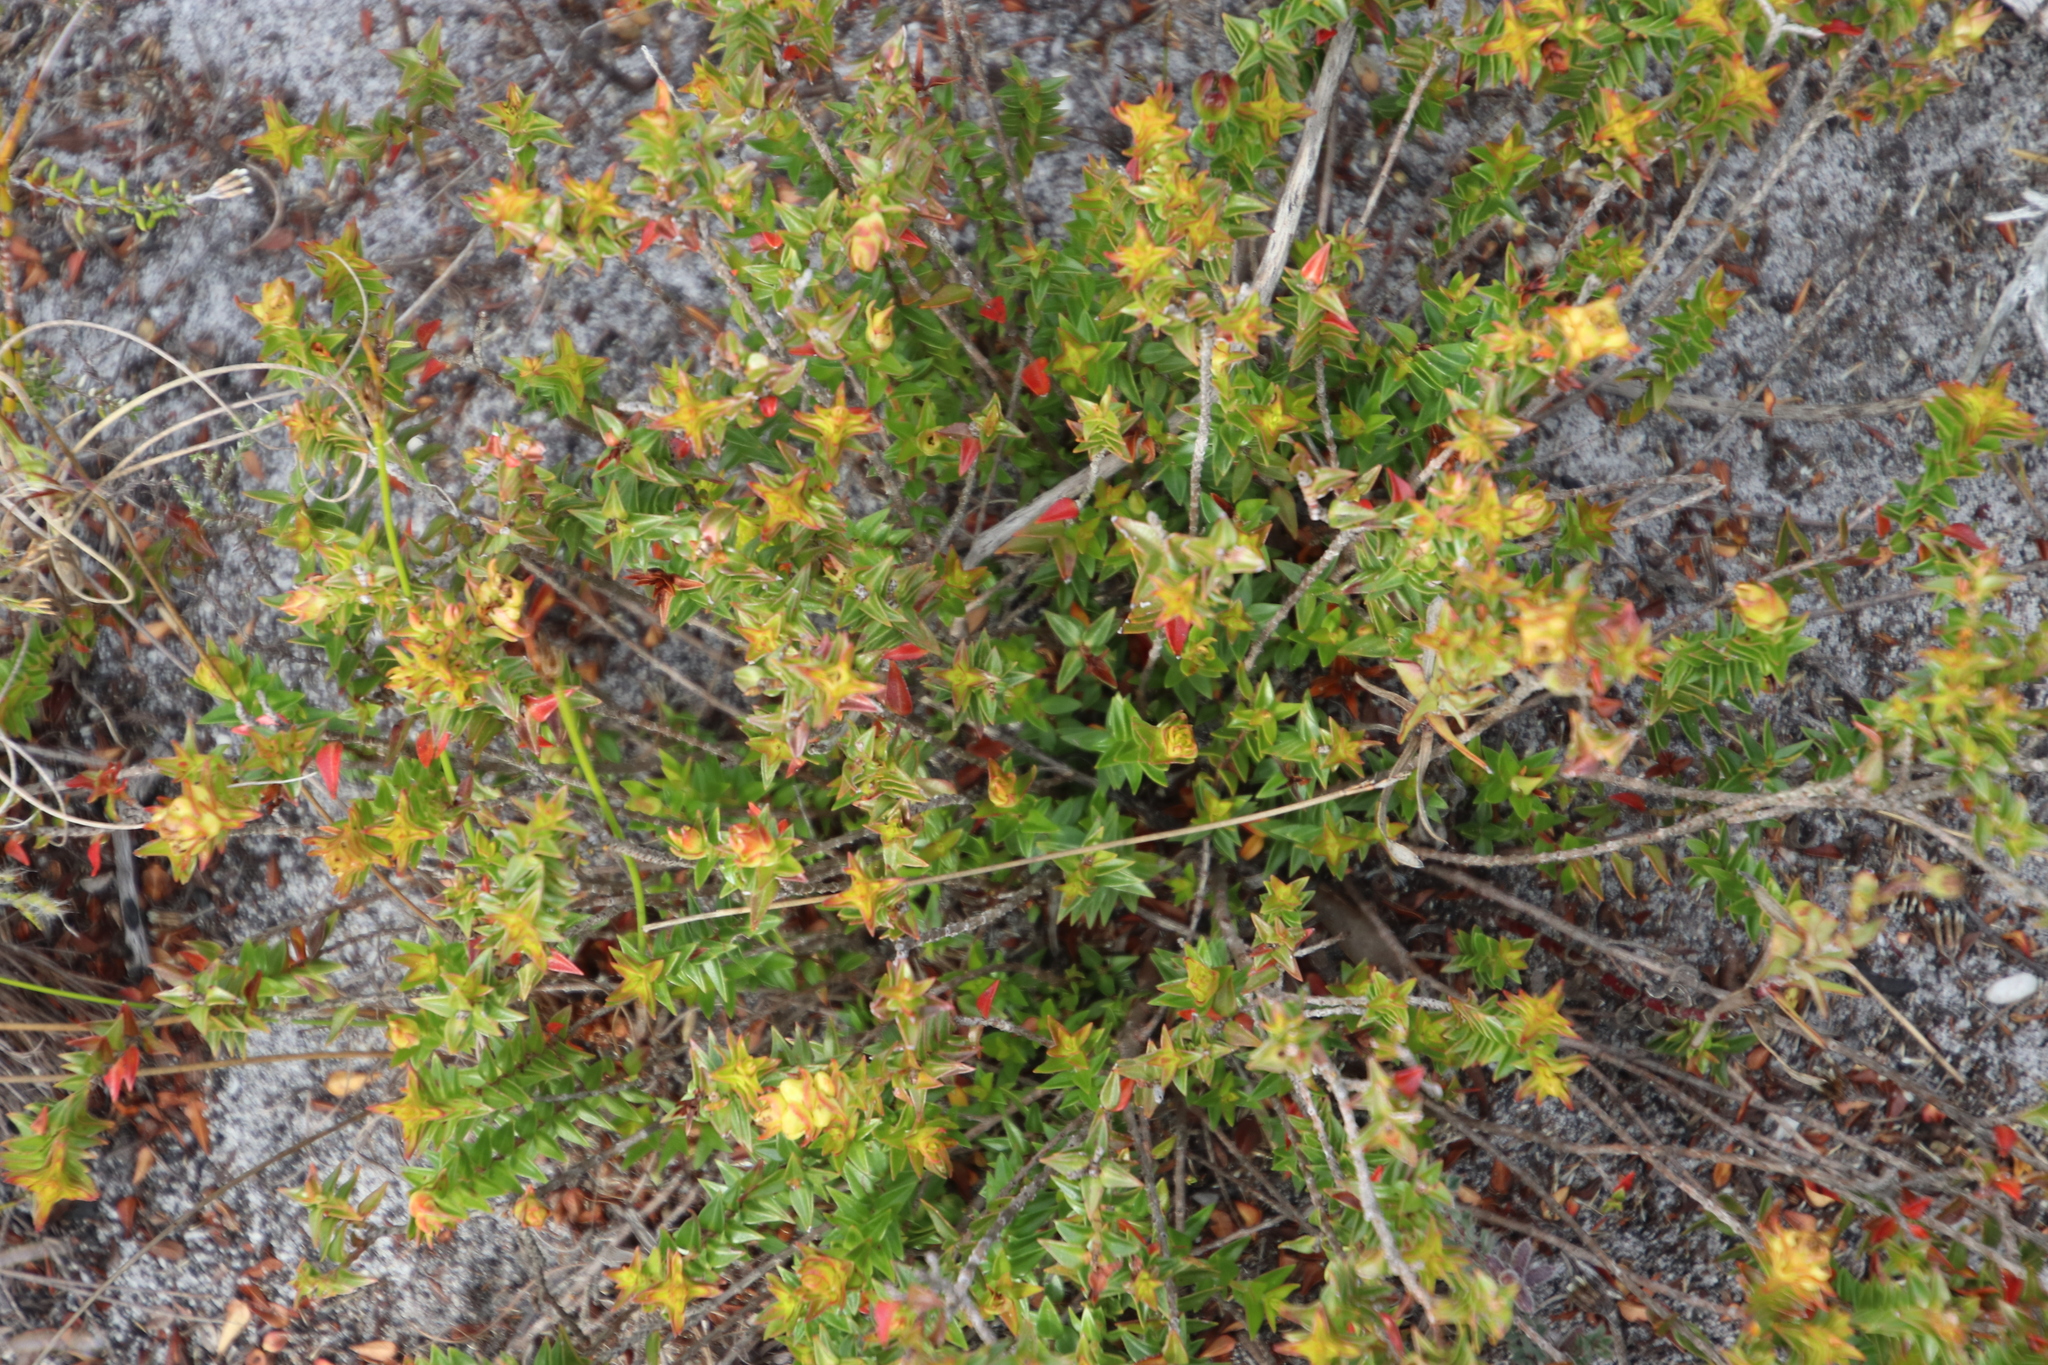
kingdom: Plantae
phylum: Tracheophyta
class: Magnoliopsida
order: Myrtales
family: Penaeaceae
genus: Penaea
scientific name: Penaea mucronata
